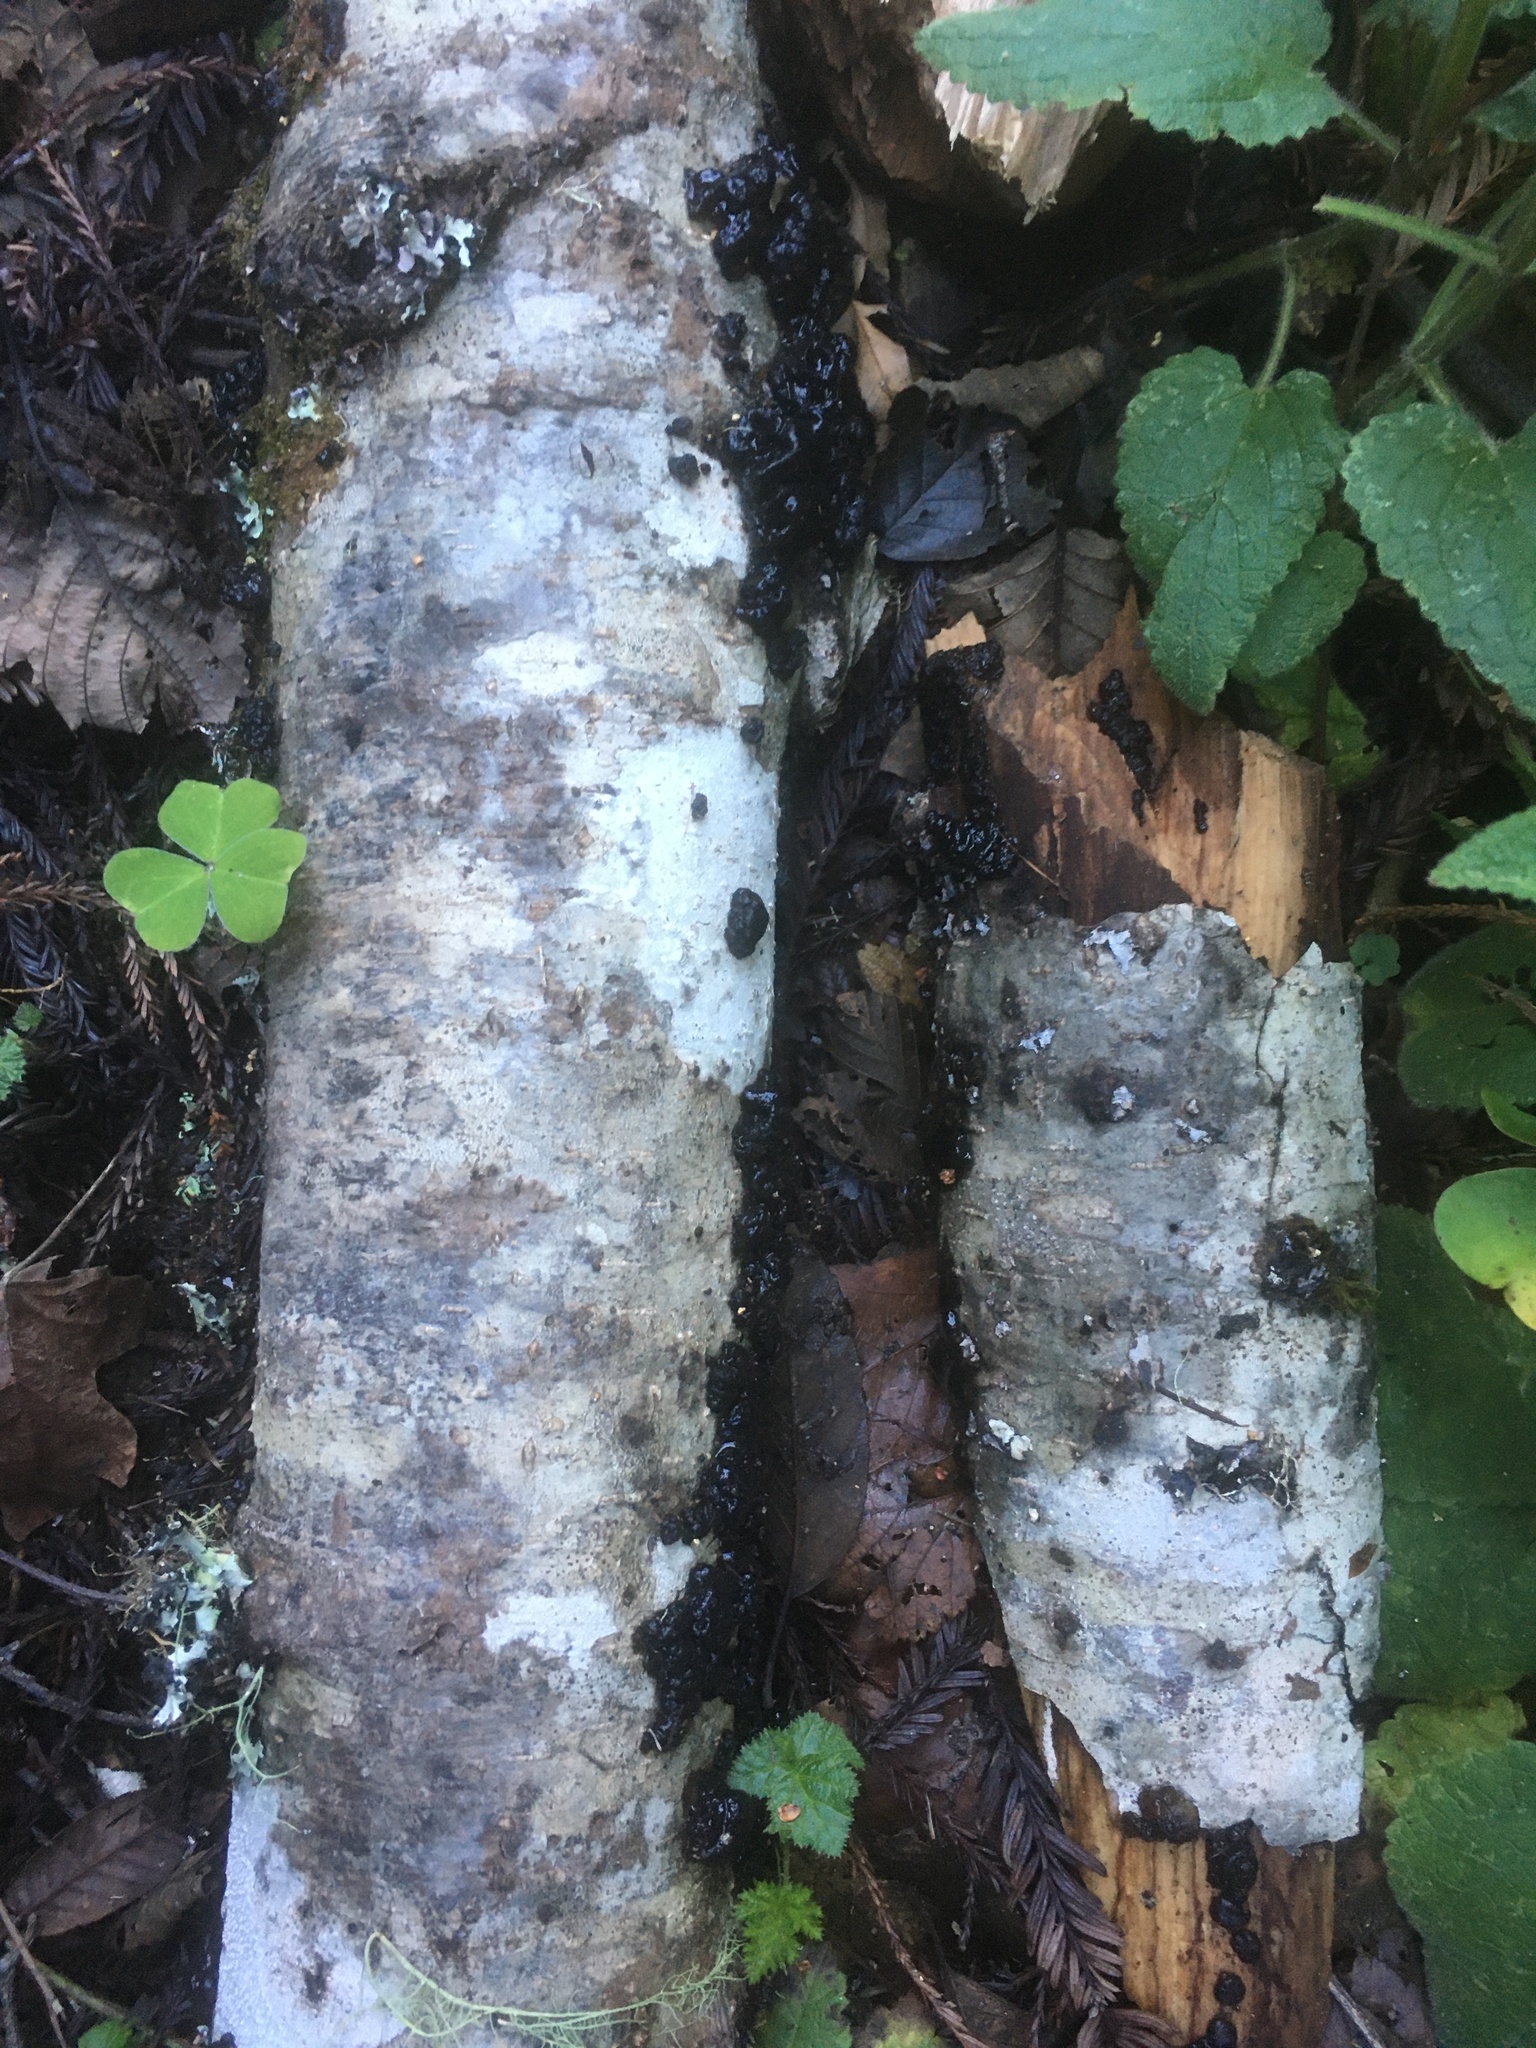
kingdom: Fungi
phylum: Basidiomycota
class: Agaricomycetes
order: Auriculariales
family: Auriculariaceae
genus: Exidia
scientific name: Exidia glandulosa
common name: Witches' butter
